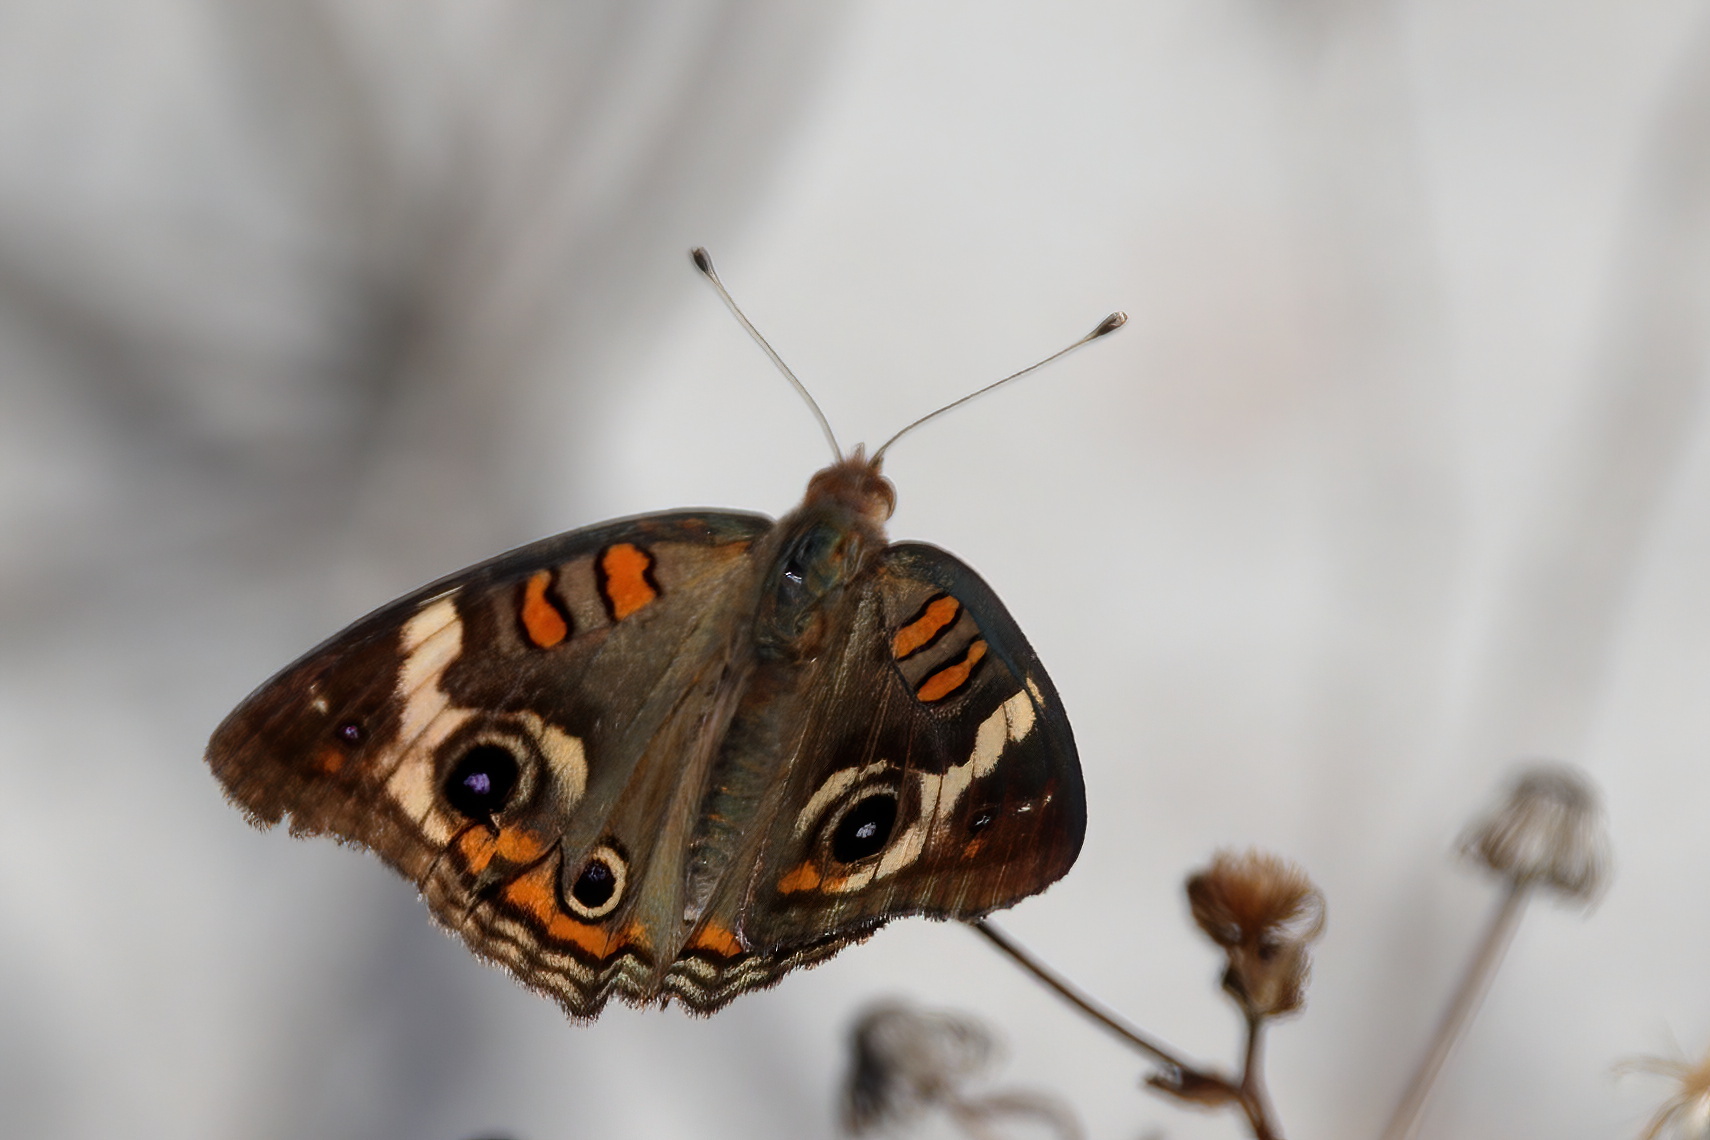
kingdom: Animalia
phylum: Arthropoda
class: Insecta
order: Lepidoptera
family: Nymphalidae
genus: Junonia
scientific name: Junonia coenia
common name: Common buckeye
